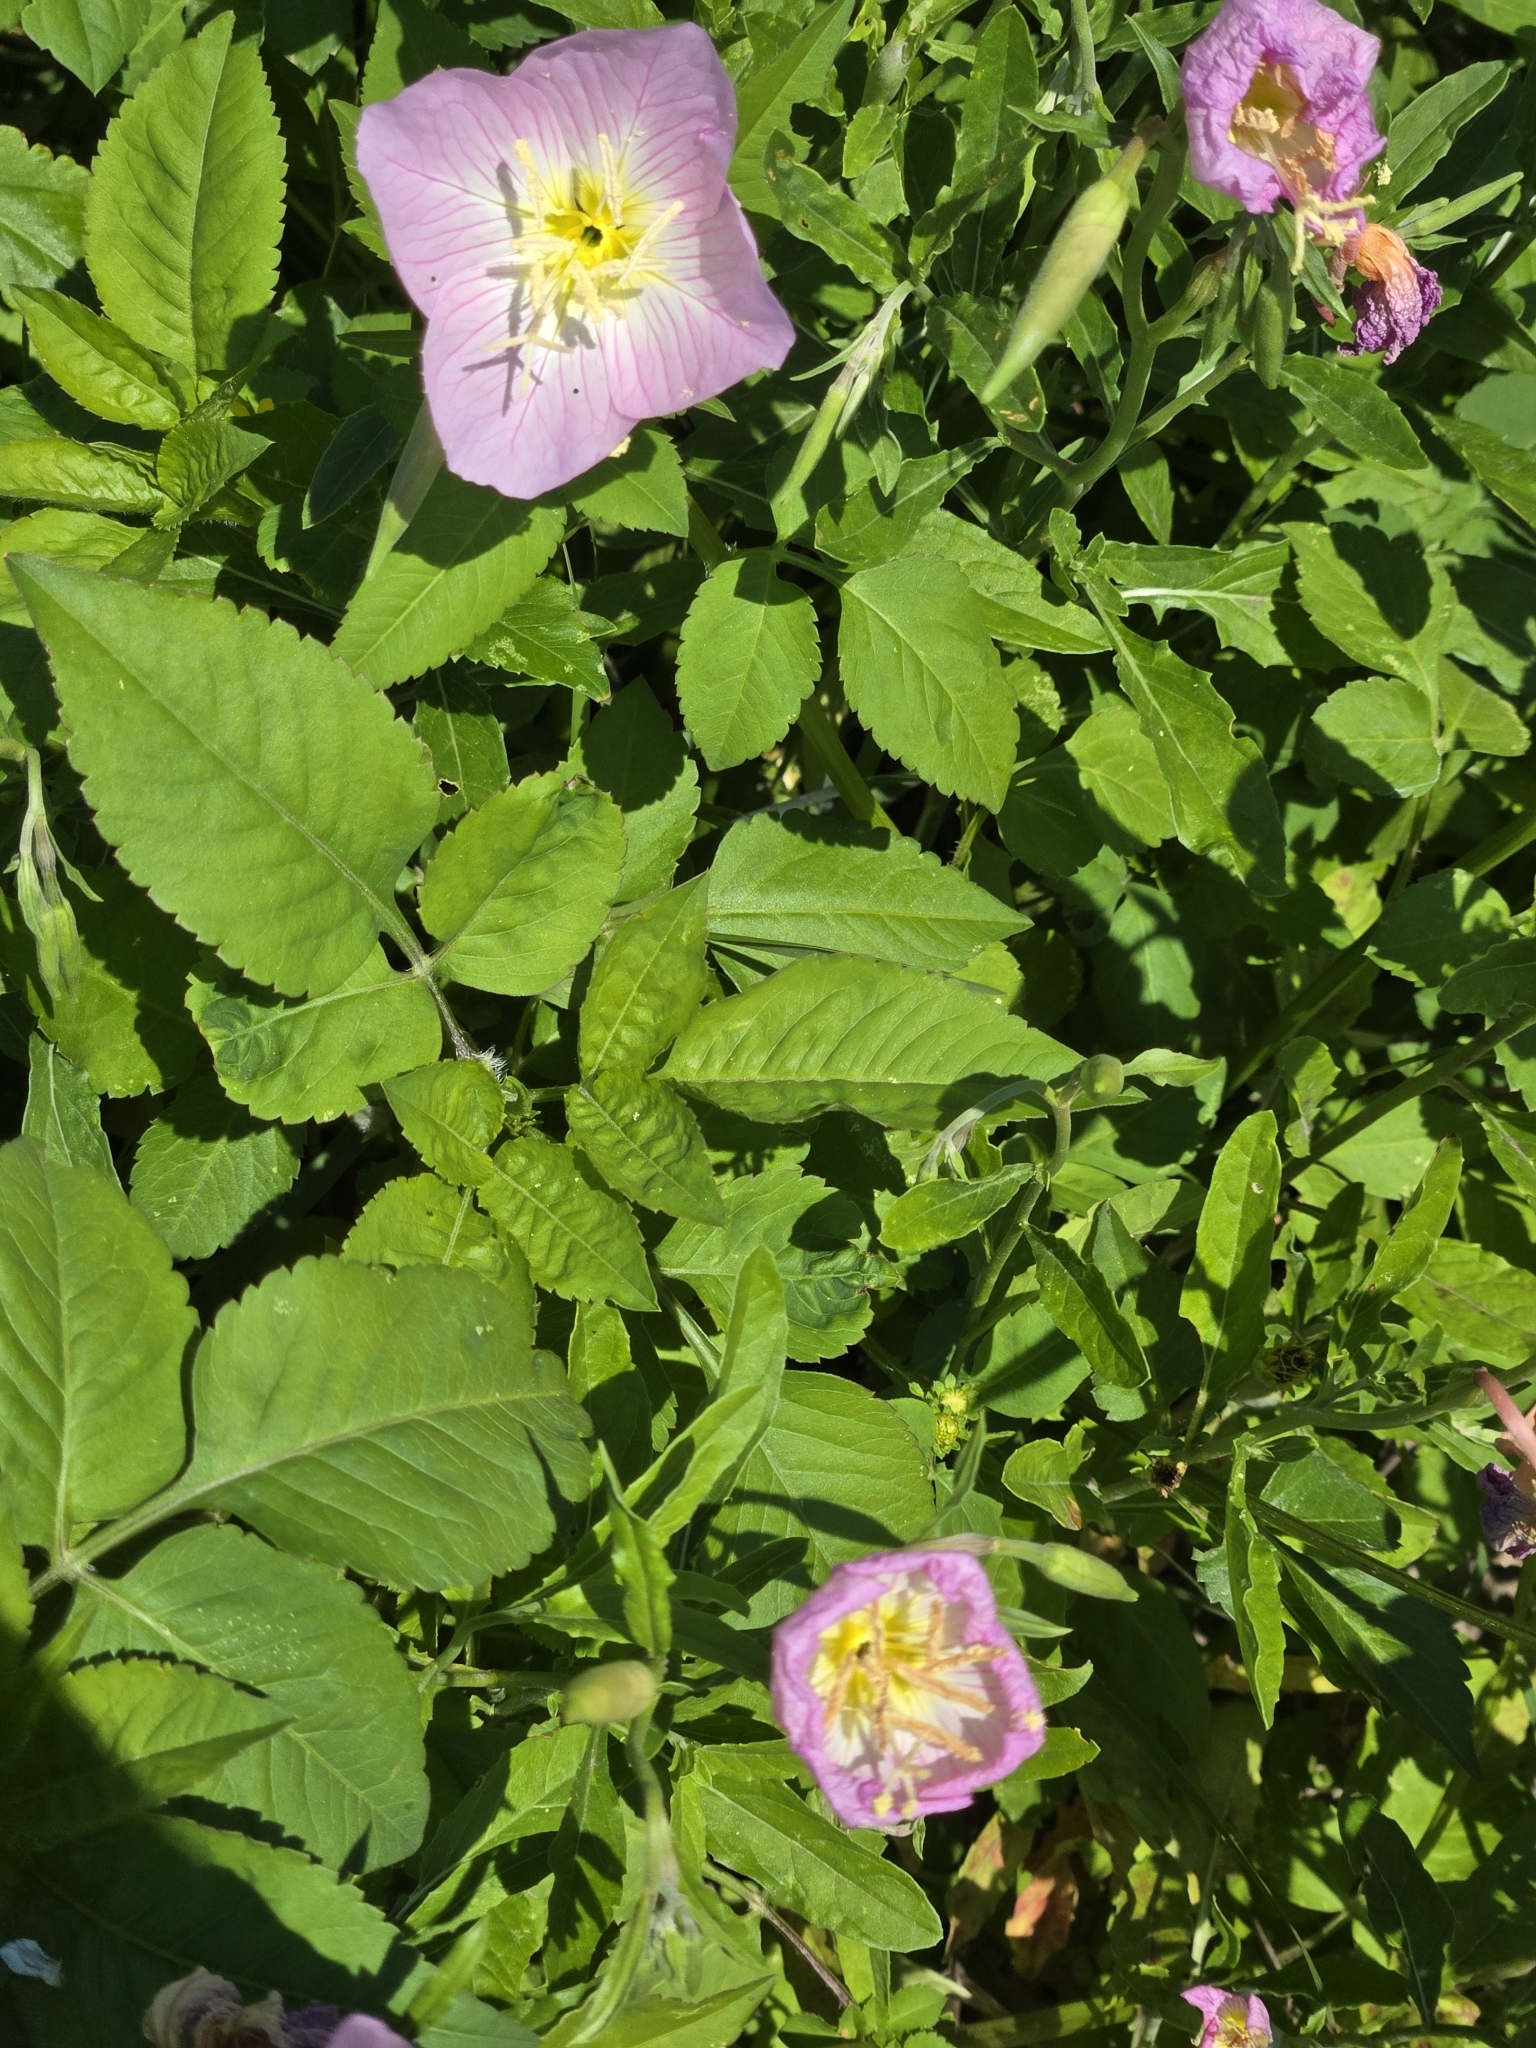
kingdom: Plantae
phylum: Tracheophyta
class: Magnoliopsida
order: Myrtales
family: Onagraceae
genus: Oenothera
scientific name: Oenothera speciosa
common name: White evening-primrose
